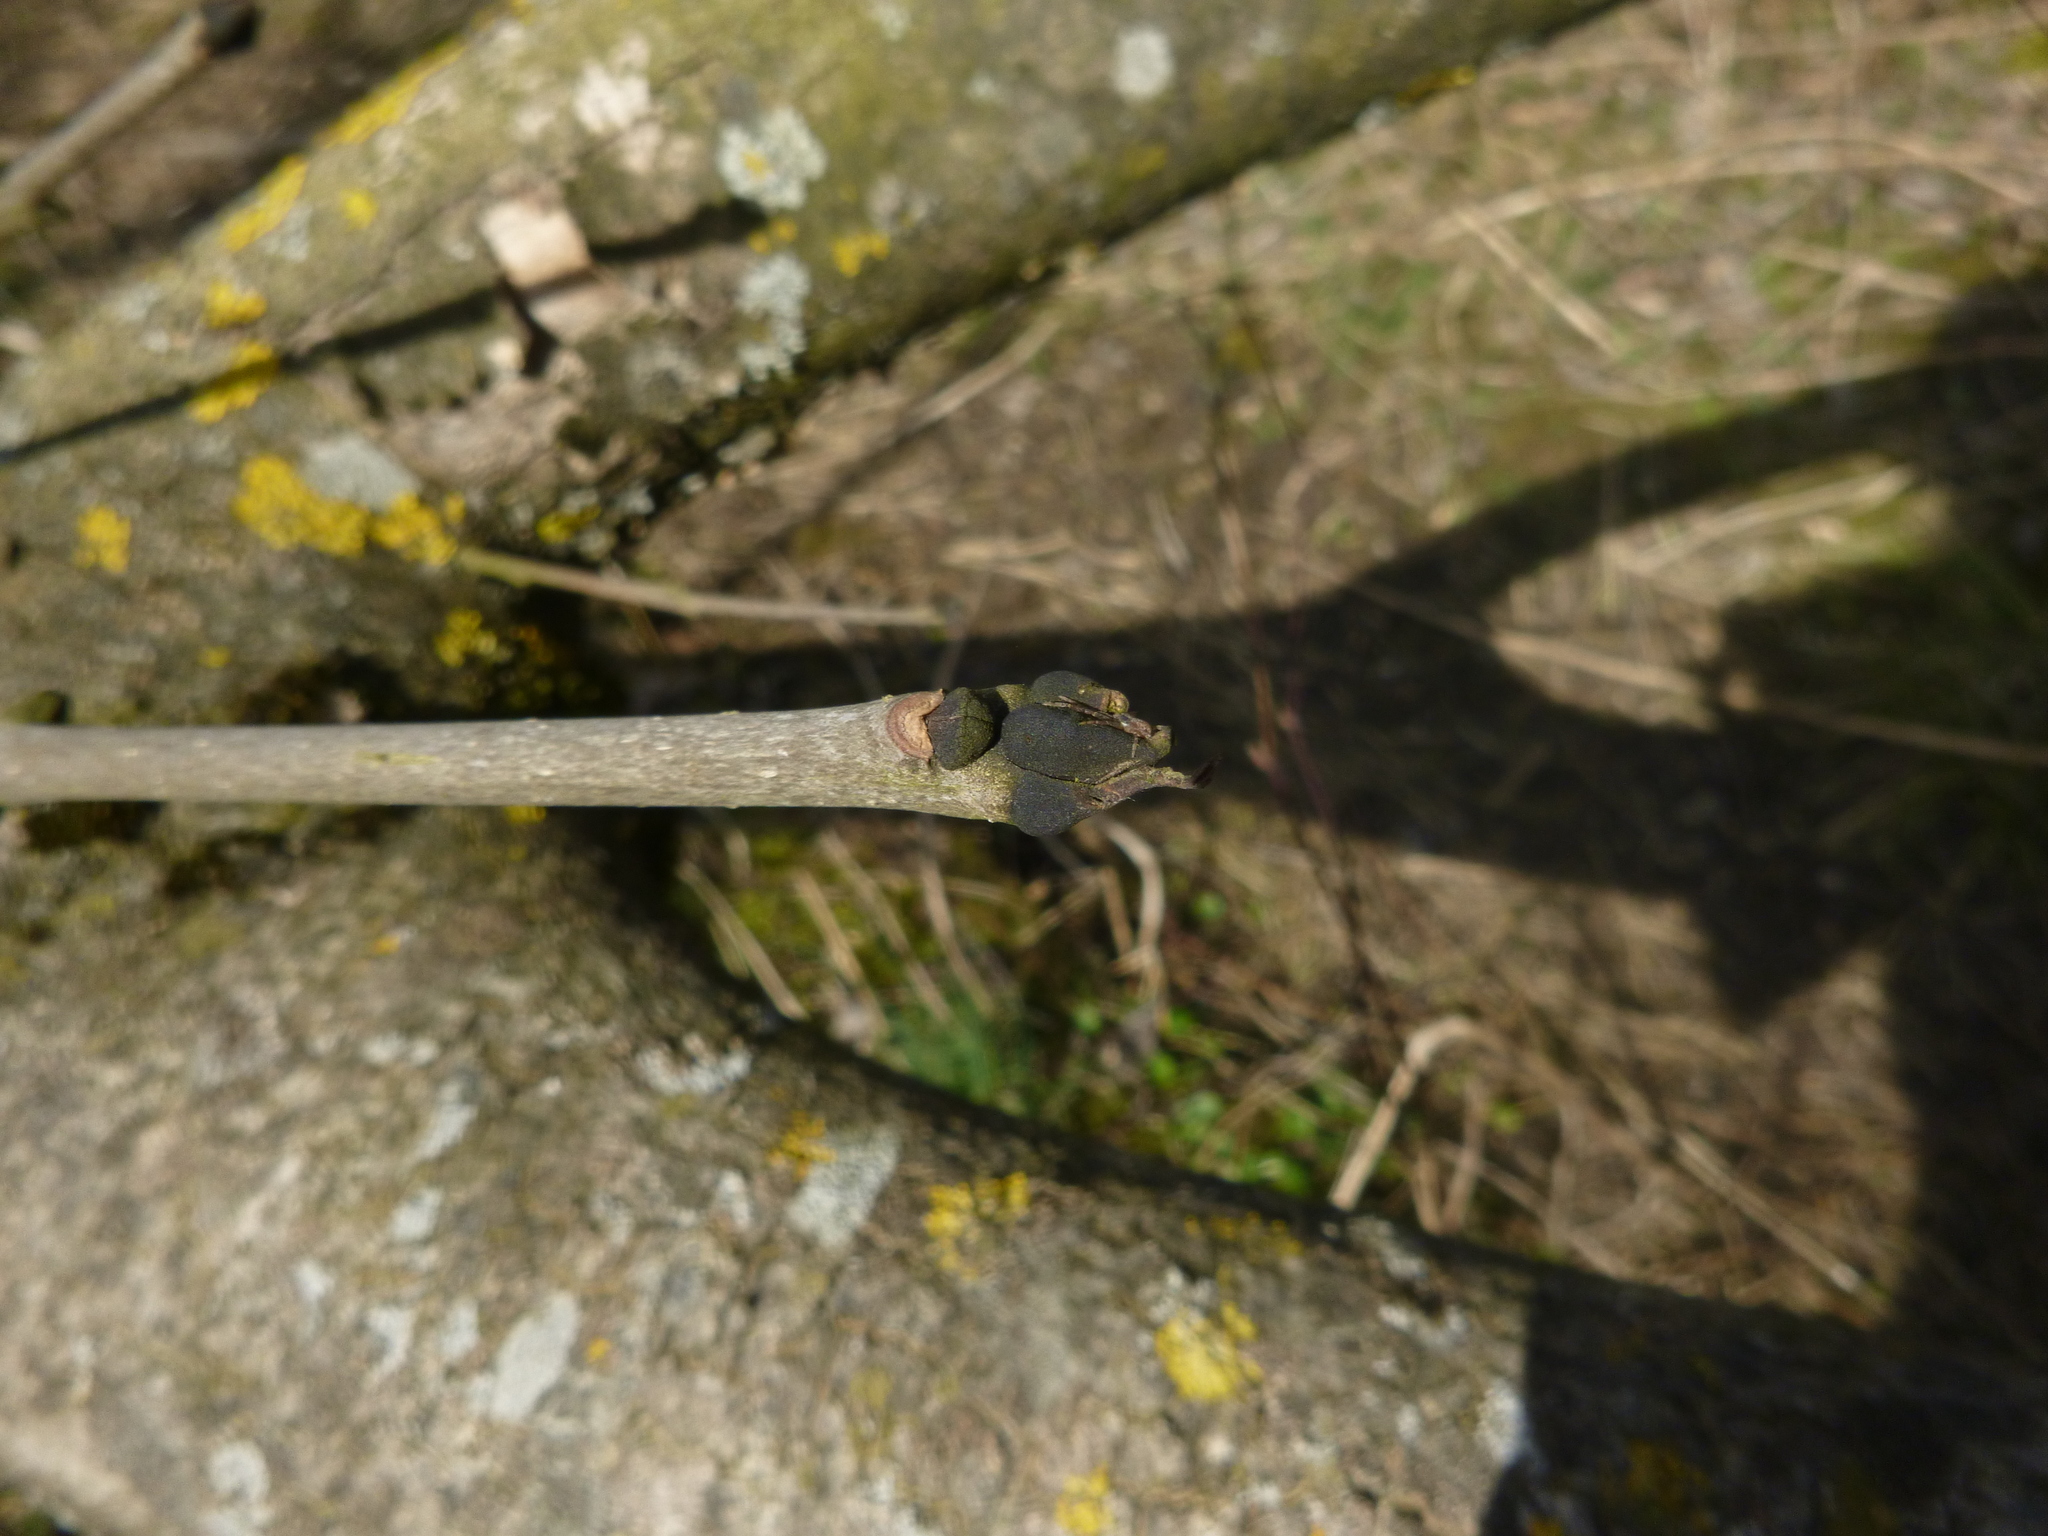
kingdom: Plantae
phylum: Tracheophyta
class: Magnoliopsida
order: Lamiales
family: Oleaceae
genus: Fraxinus
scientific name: Fraxinus excelsior
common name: European ash
